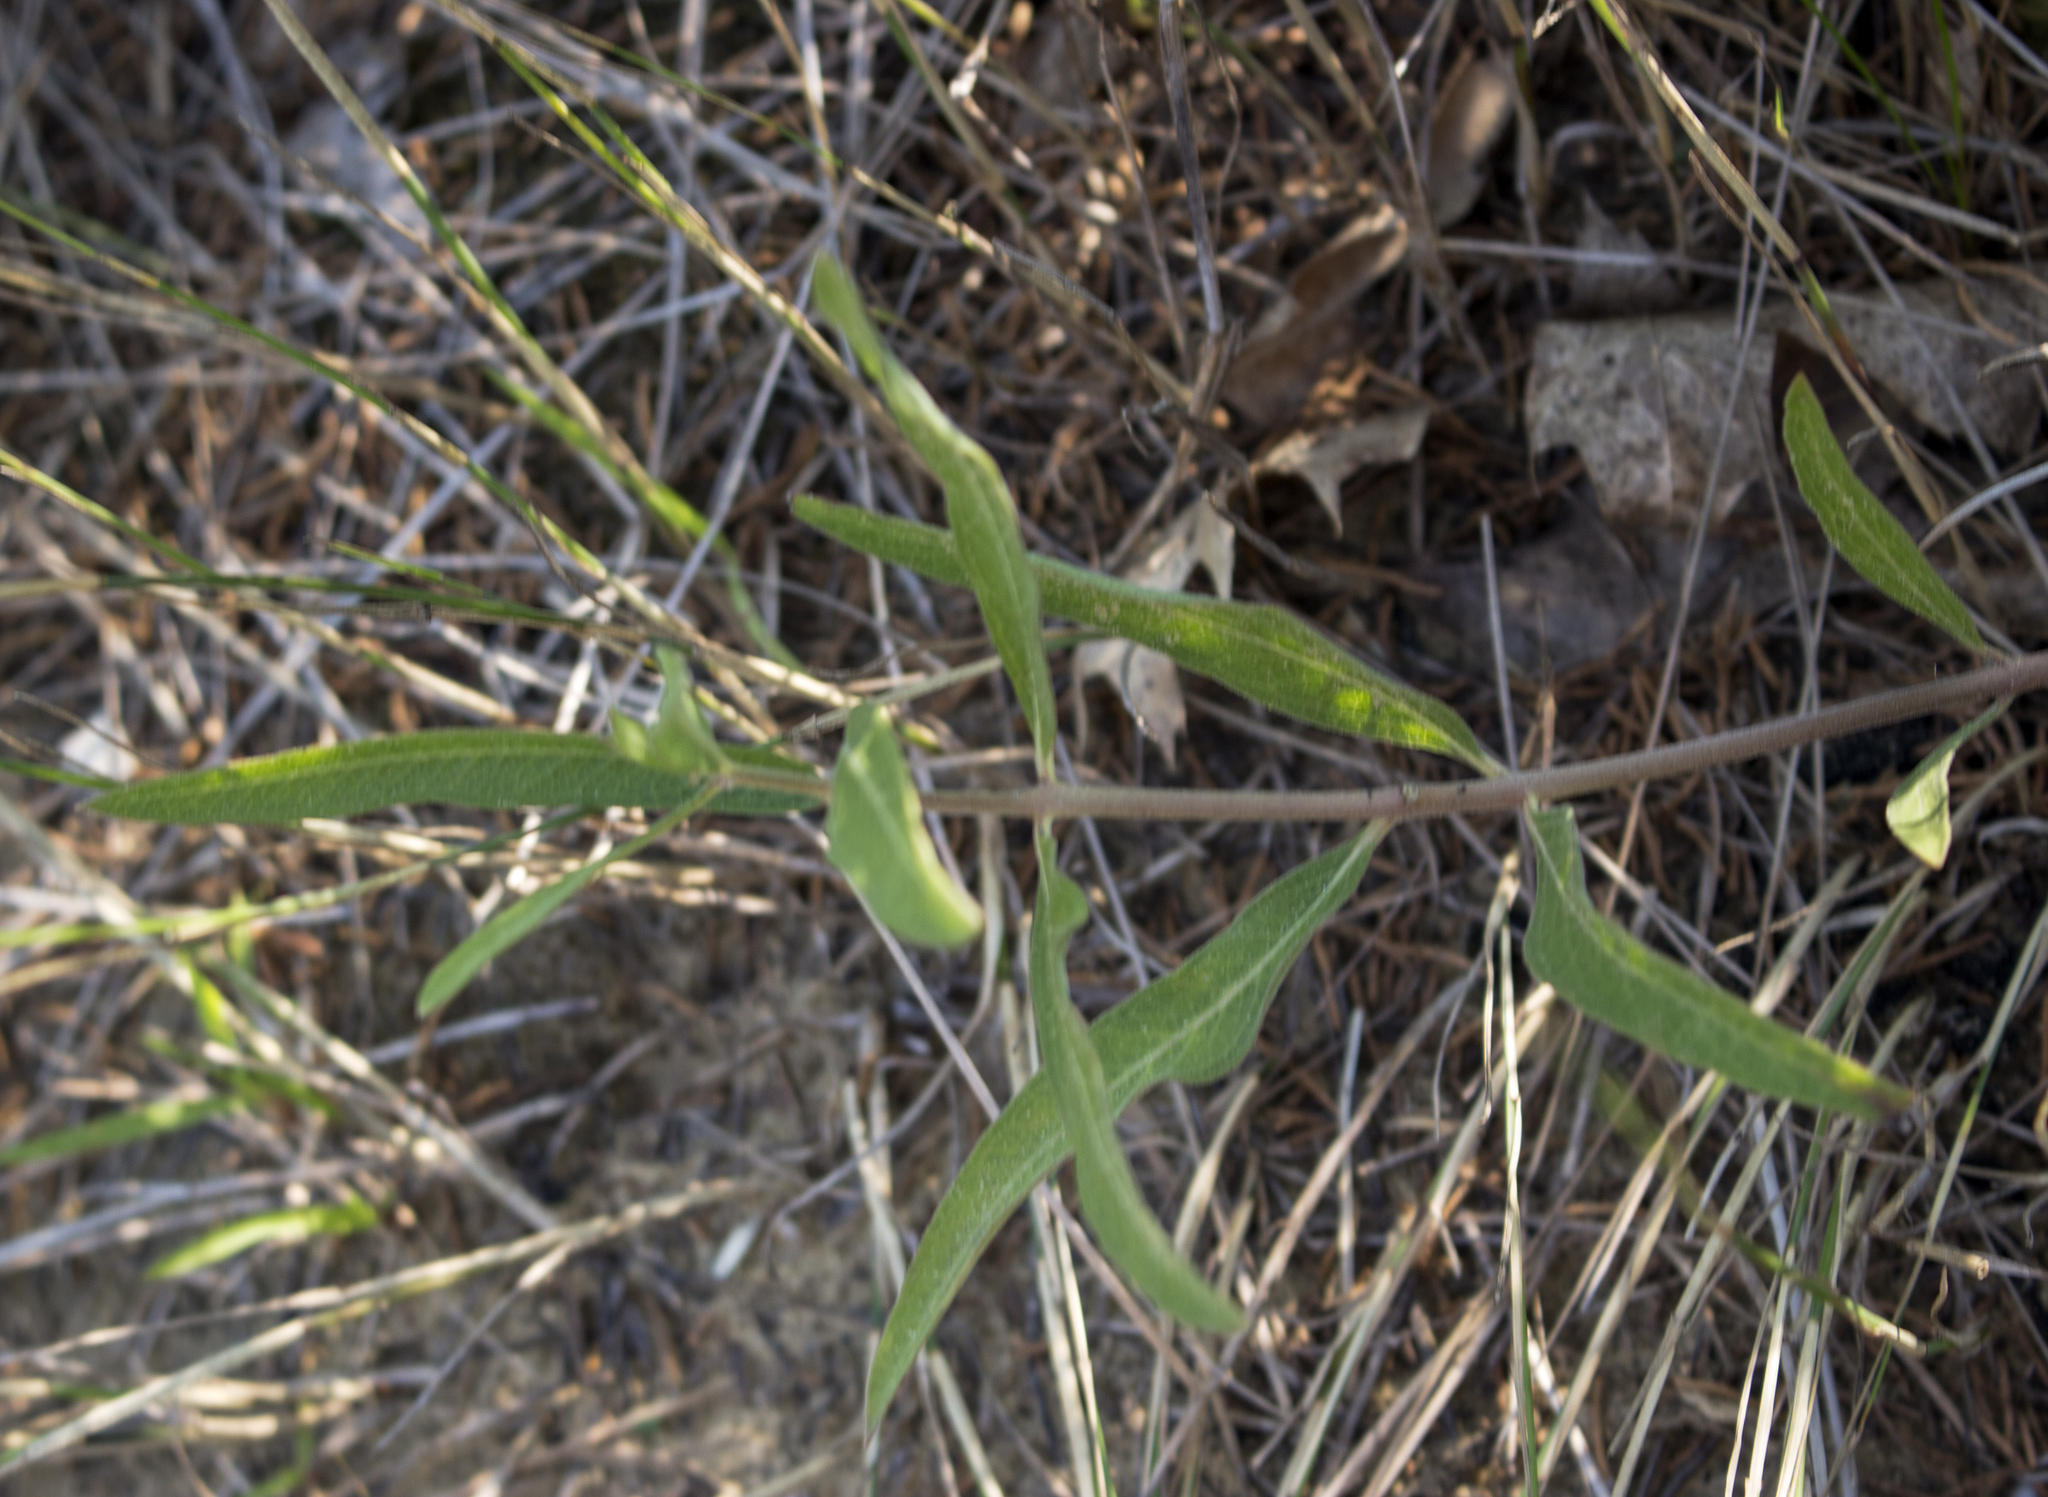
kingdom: Plantae
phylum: Tracheophyta
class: Magnoliopsida
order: Gentianales
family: Apocynaceae
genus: Asclepias
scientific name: Asclepias viridiflora
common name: Green comet milkweed
